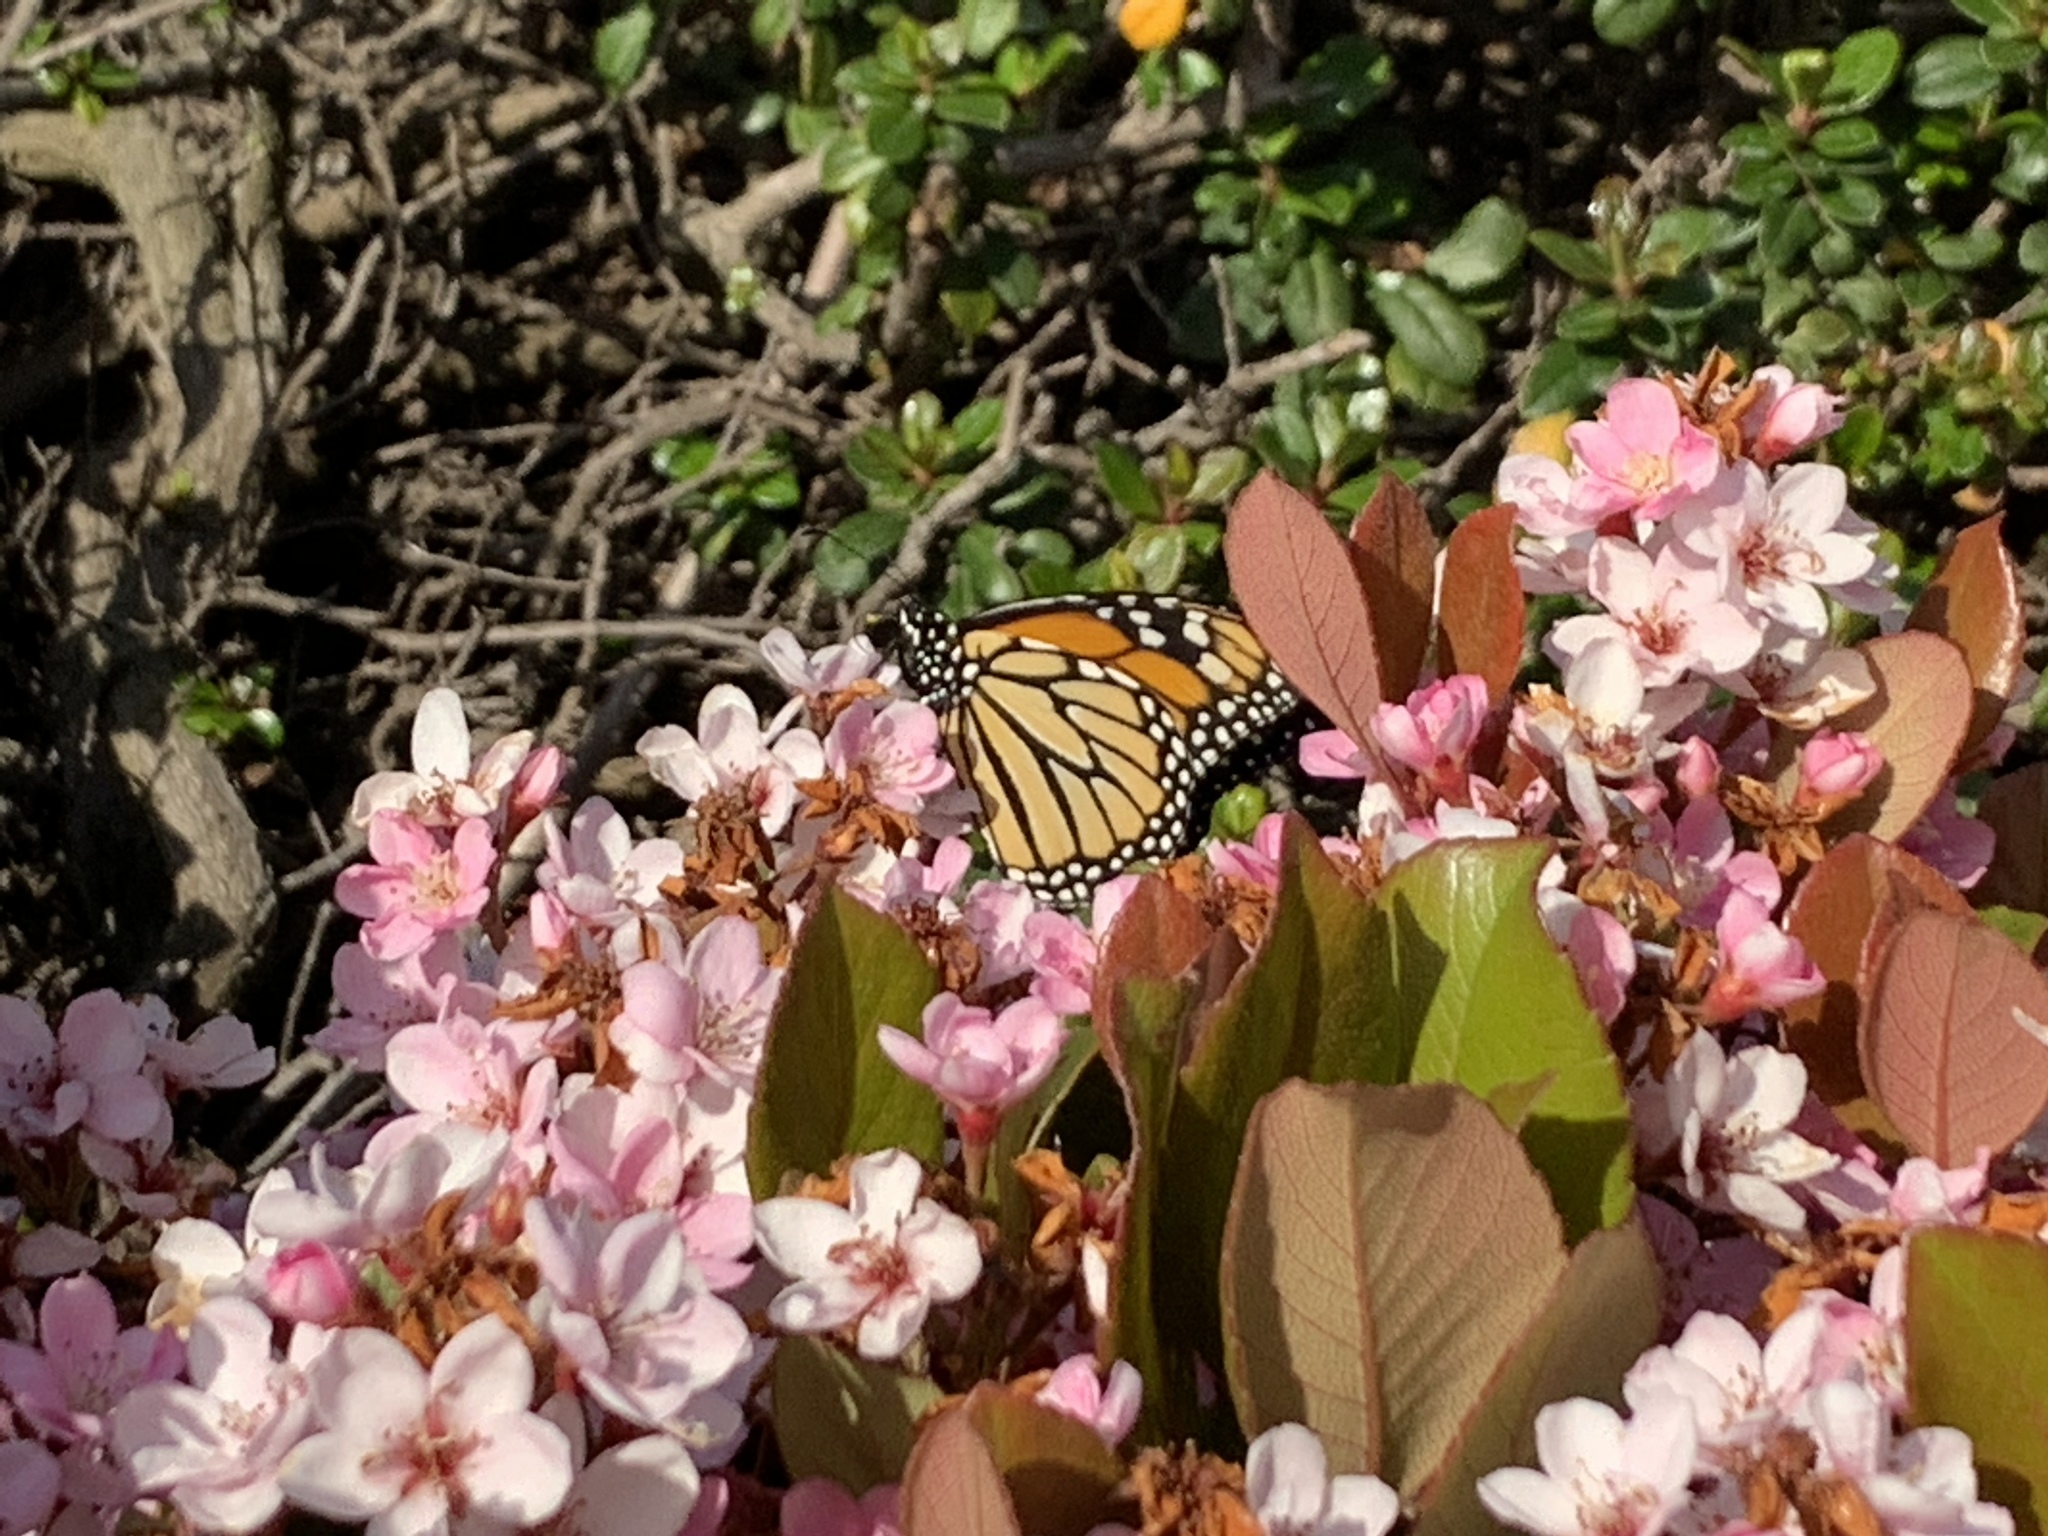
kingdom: Animalia
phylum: Arthropoda
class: Insecta
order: Lepidoptera
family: Nymphalidae
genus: Danaus
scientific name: Danaus plexippus
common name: Monarch
